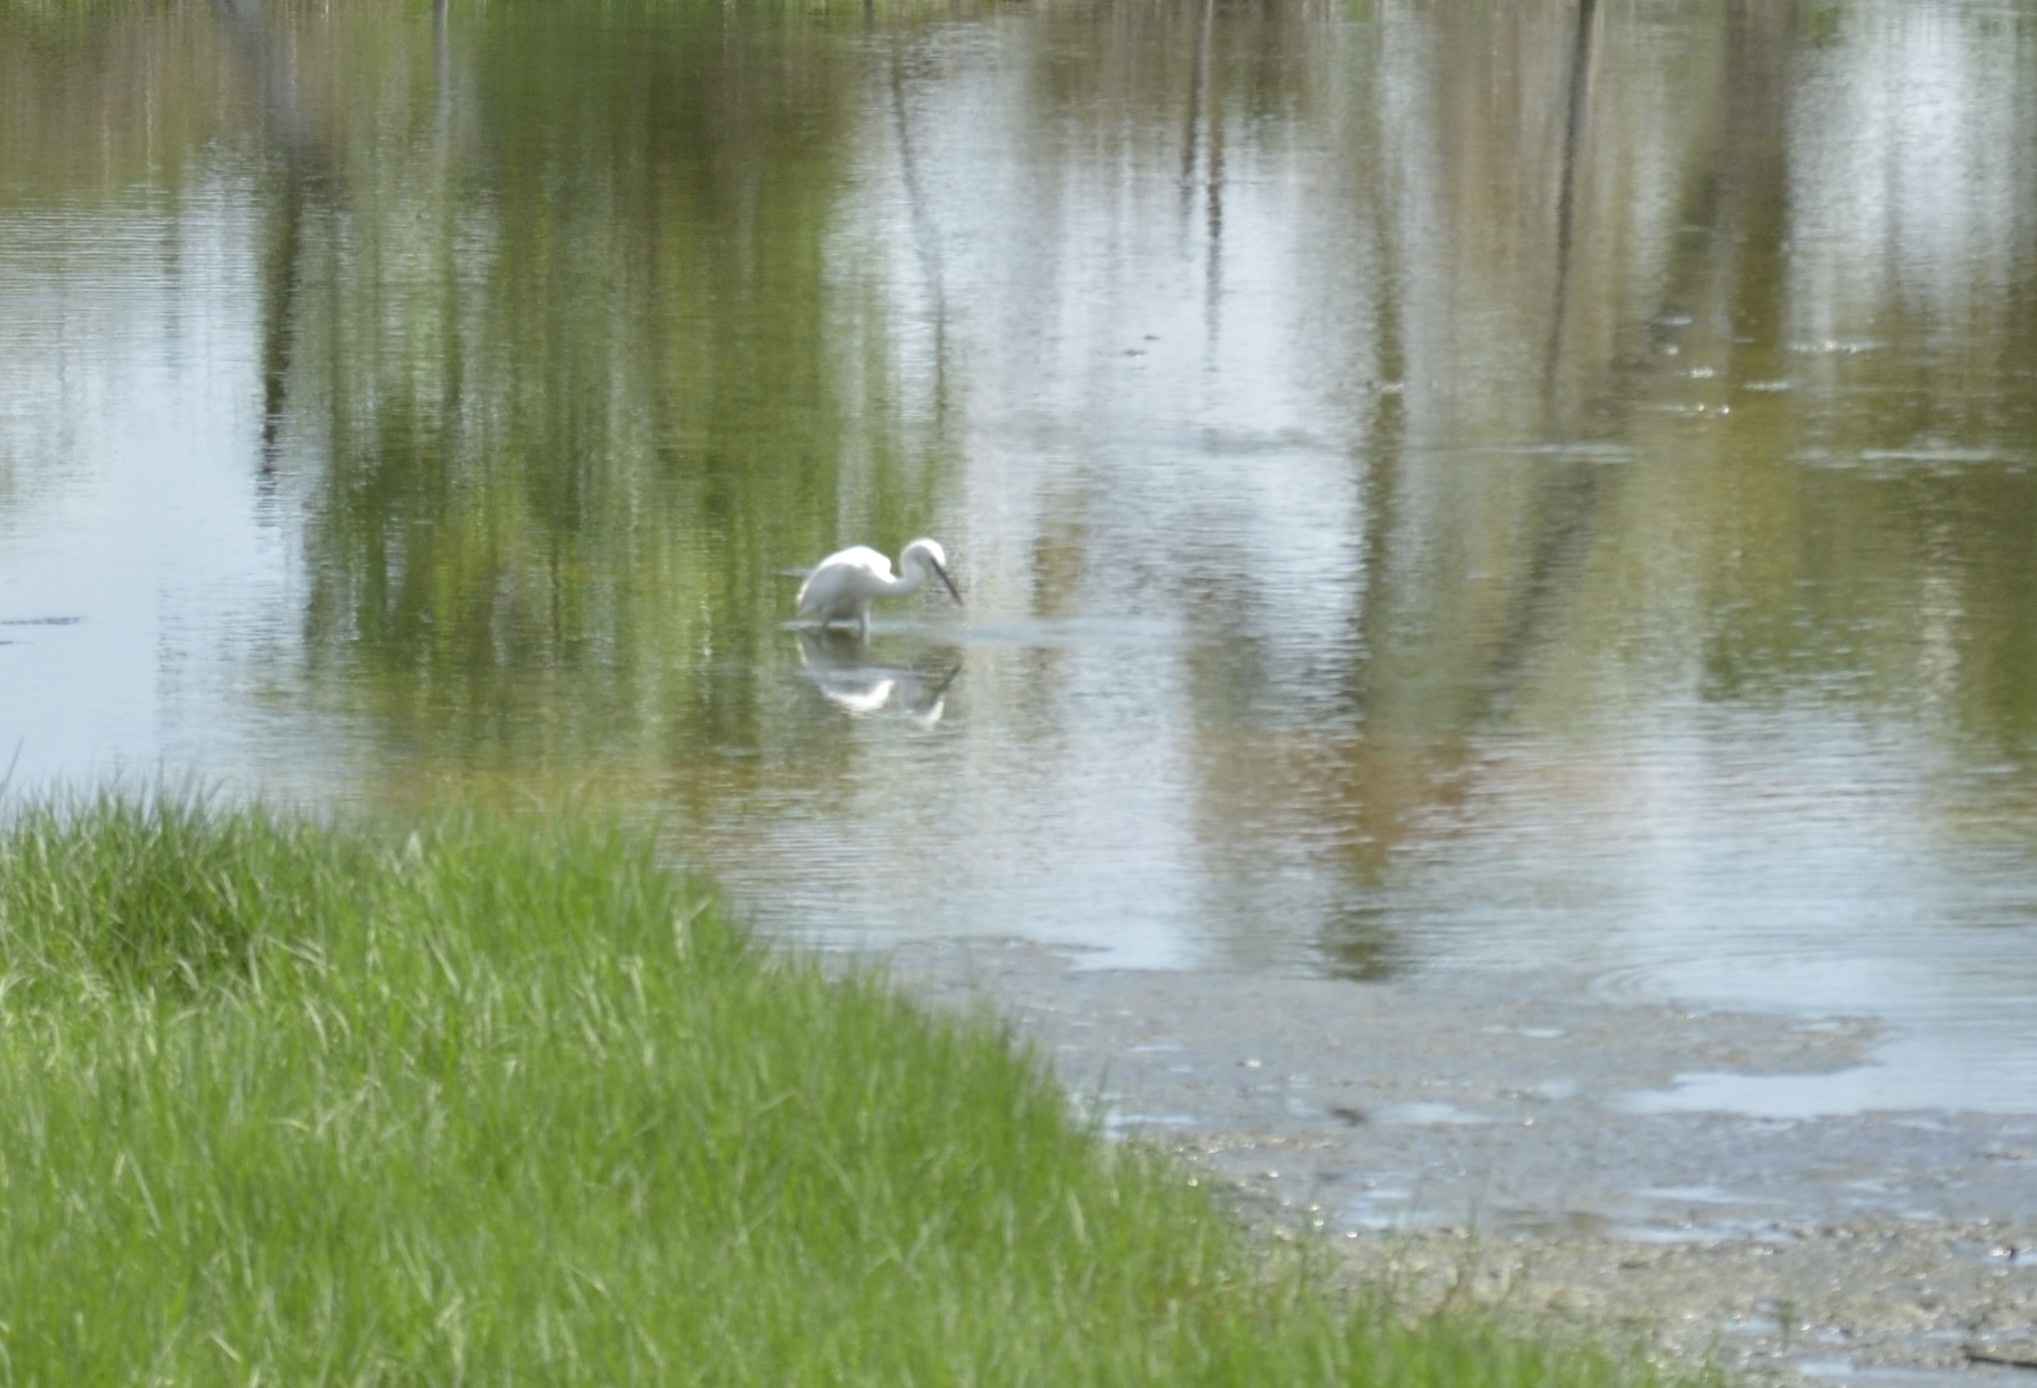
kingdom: Animalia
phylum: Chordata
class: Aves
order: Pelecaniformes
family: Ardeidae
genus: Egretta
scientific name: Egretta garzetta
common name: Little egret
